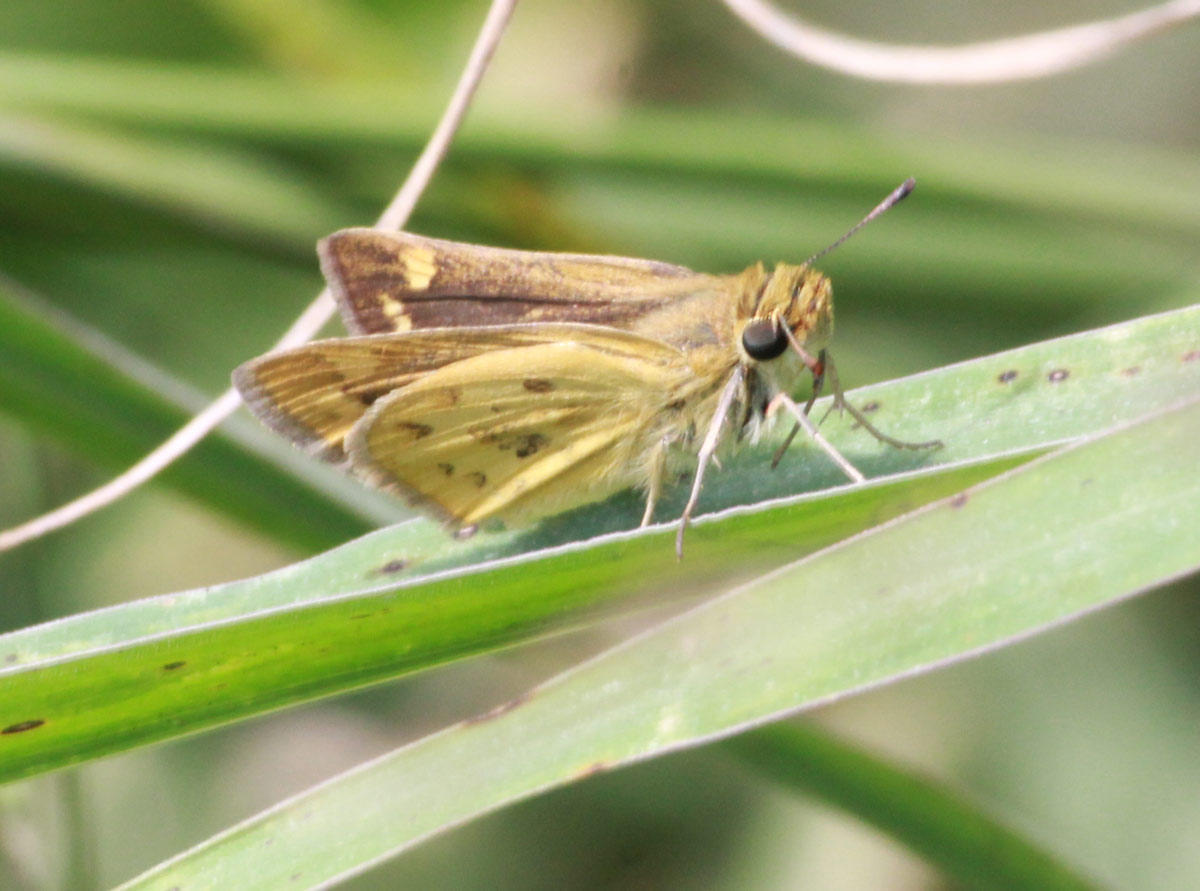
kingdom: Animalia
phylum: Arthropoda
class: Insecta
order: Hymenoptera
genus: Afrogenes
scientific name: Afrogenes
